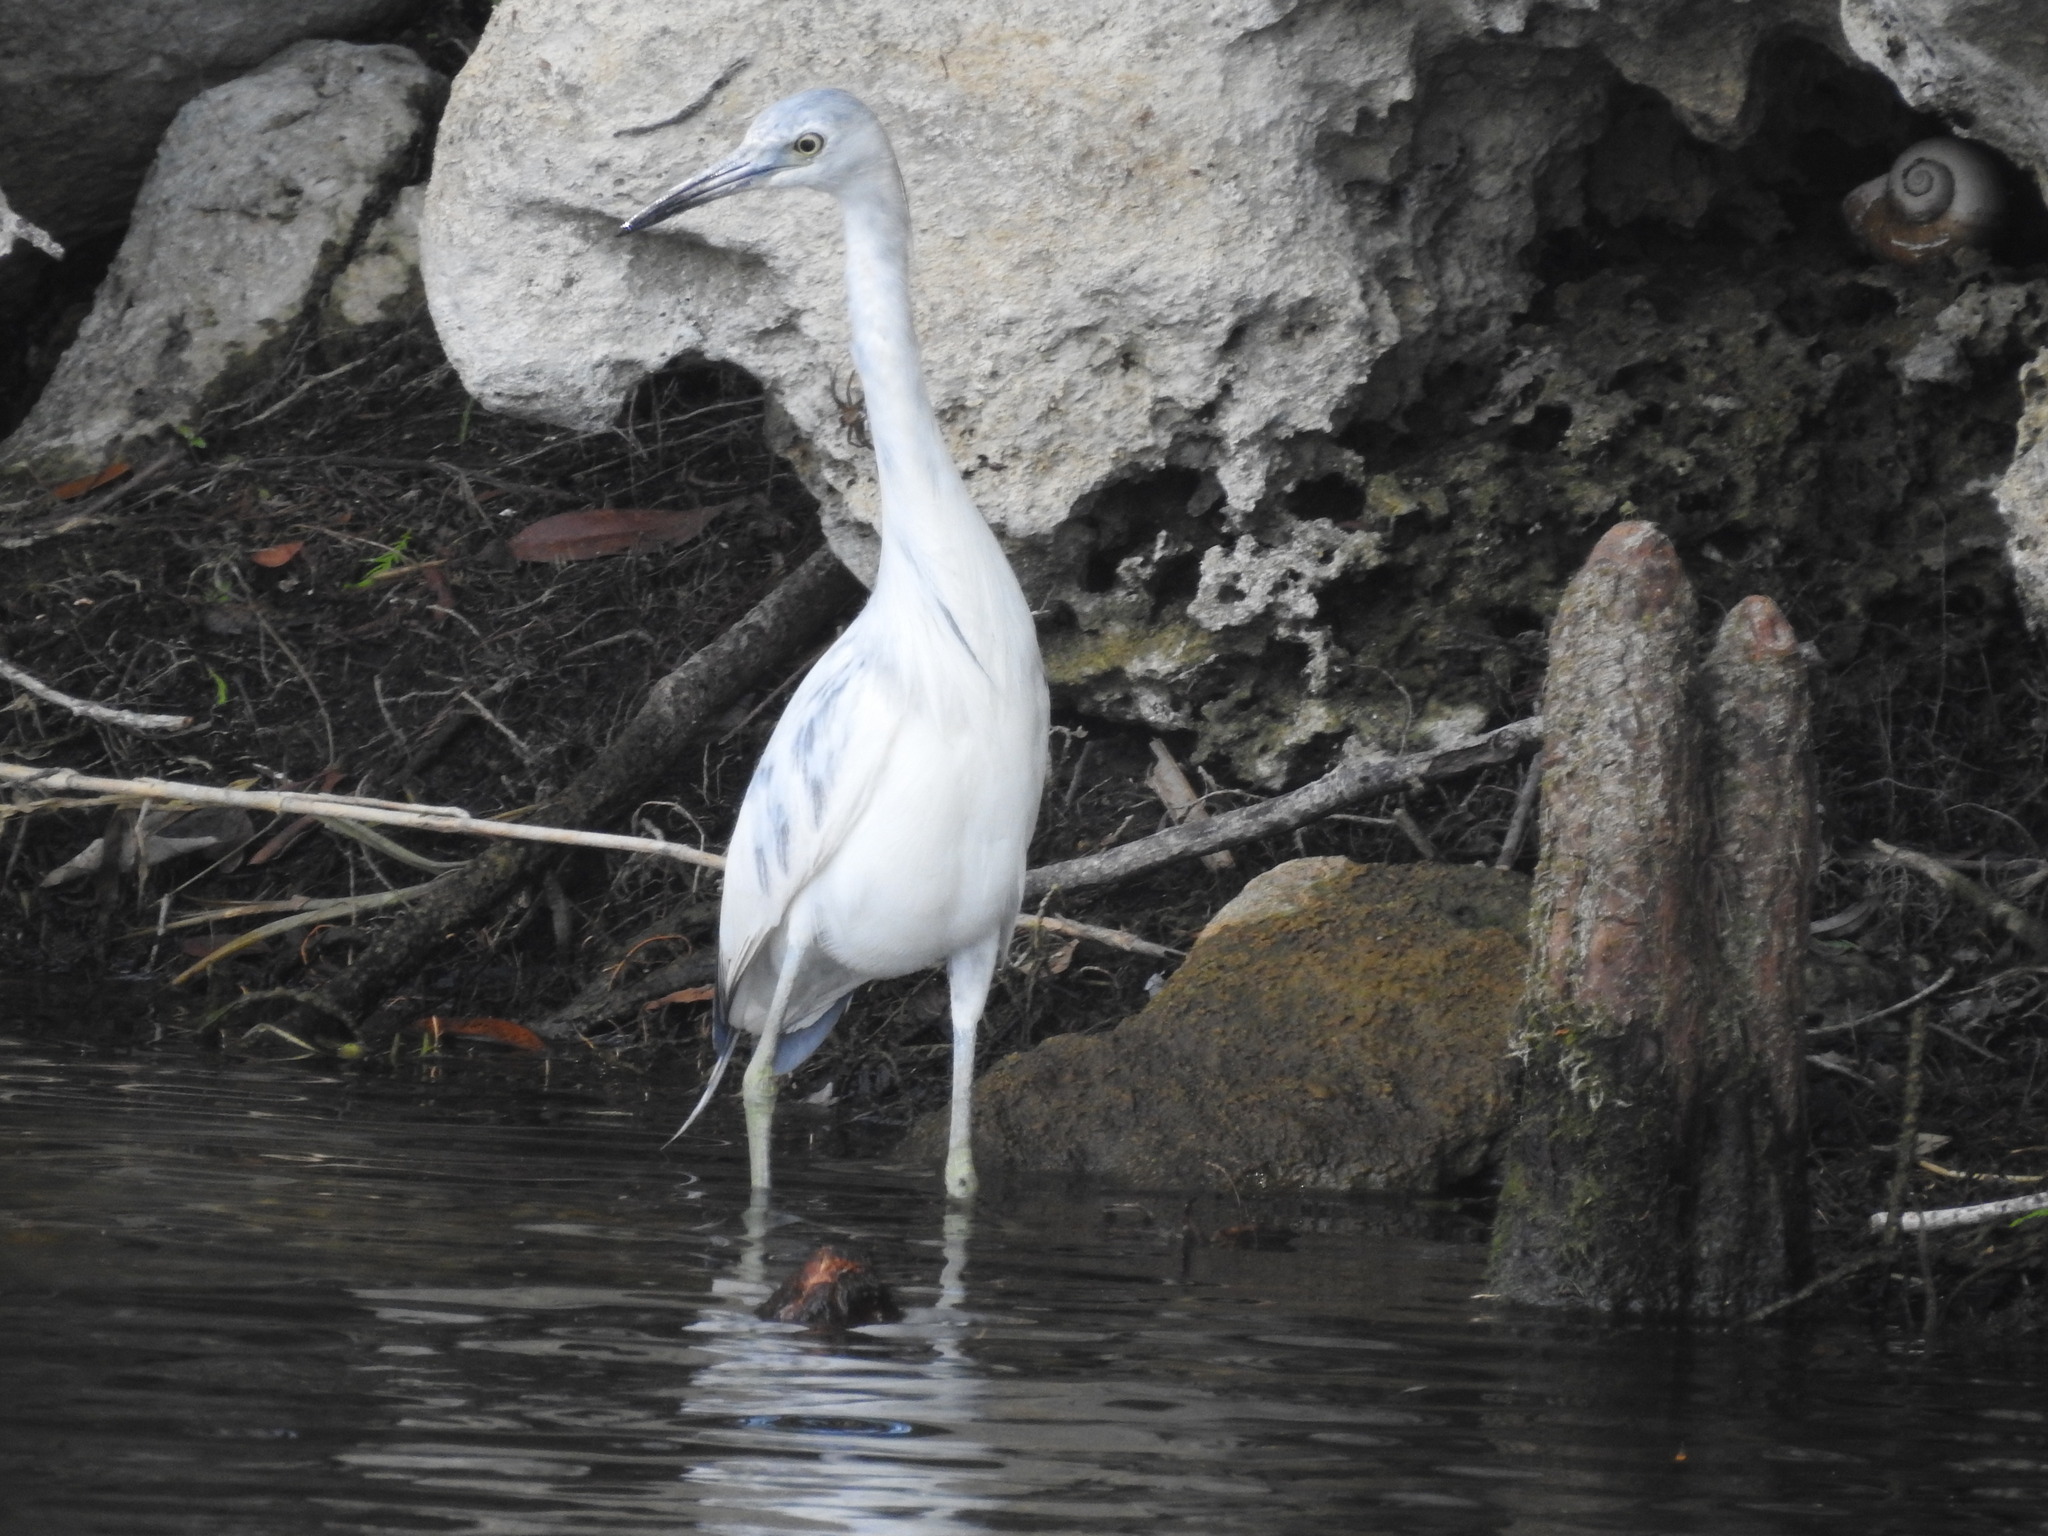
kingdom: Animalia
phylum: Chordata
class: Aves
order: Pelecaniformes
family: Ardeidae
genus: Egretta
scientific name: Egretta caerulea
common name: Little blue heron
